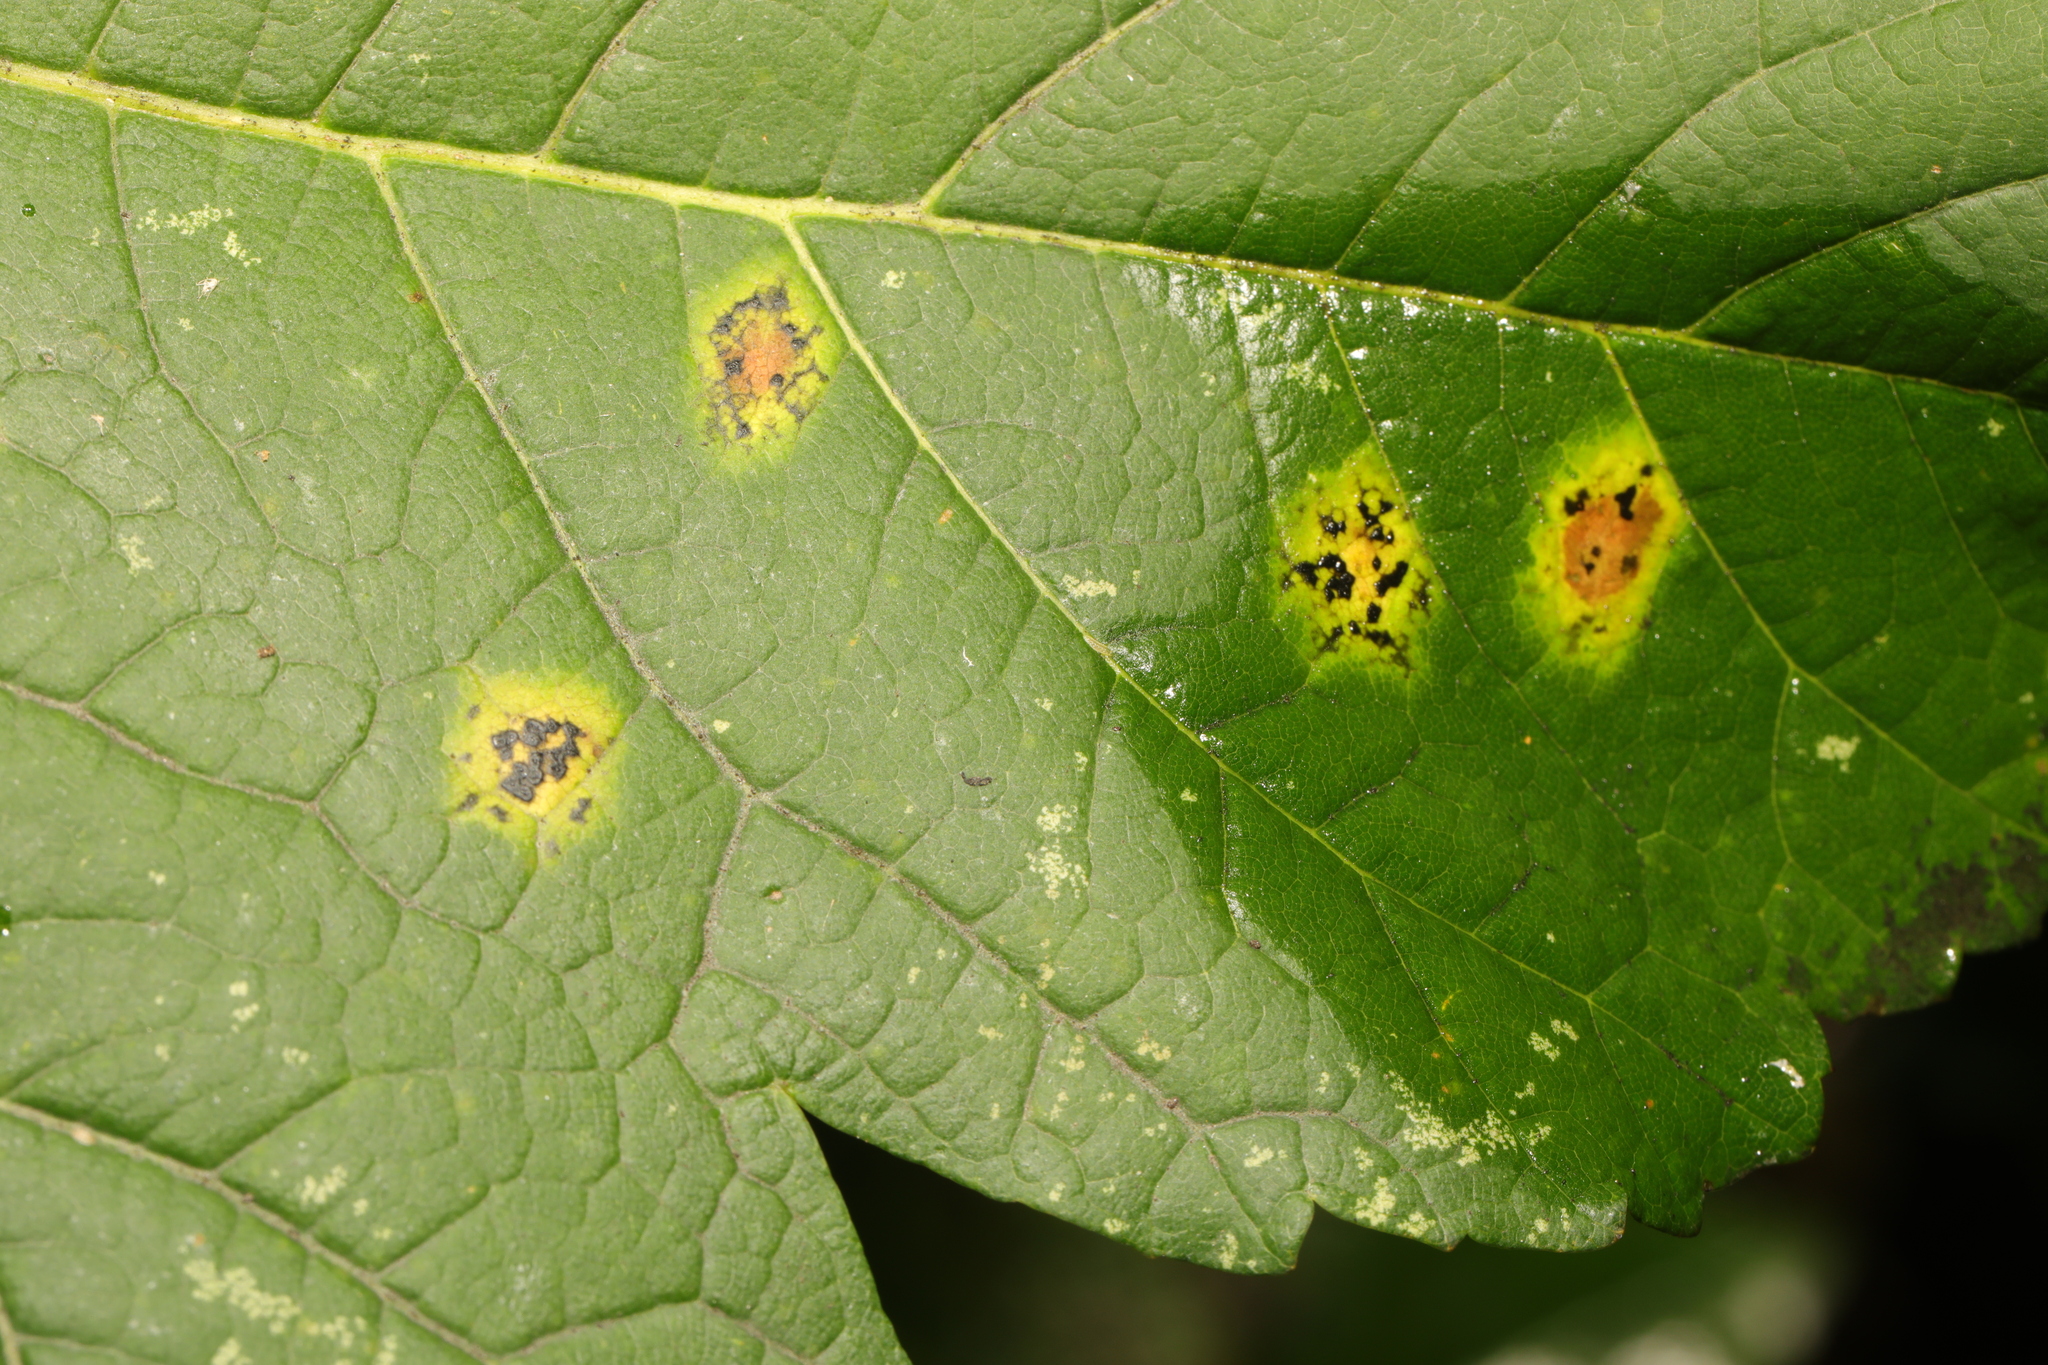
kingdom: Fungi
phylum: Ascomycota
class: Leotiomycetes
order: Rhytismatales
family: Rhytismataceae
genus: Rhytisma
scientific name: Rhytisma acerinum
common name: European tar spot
